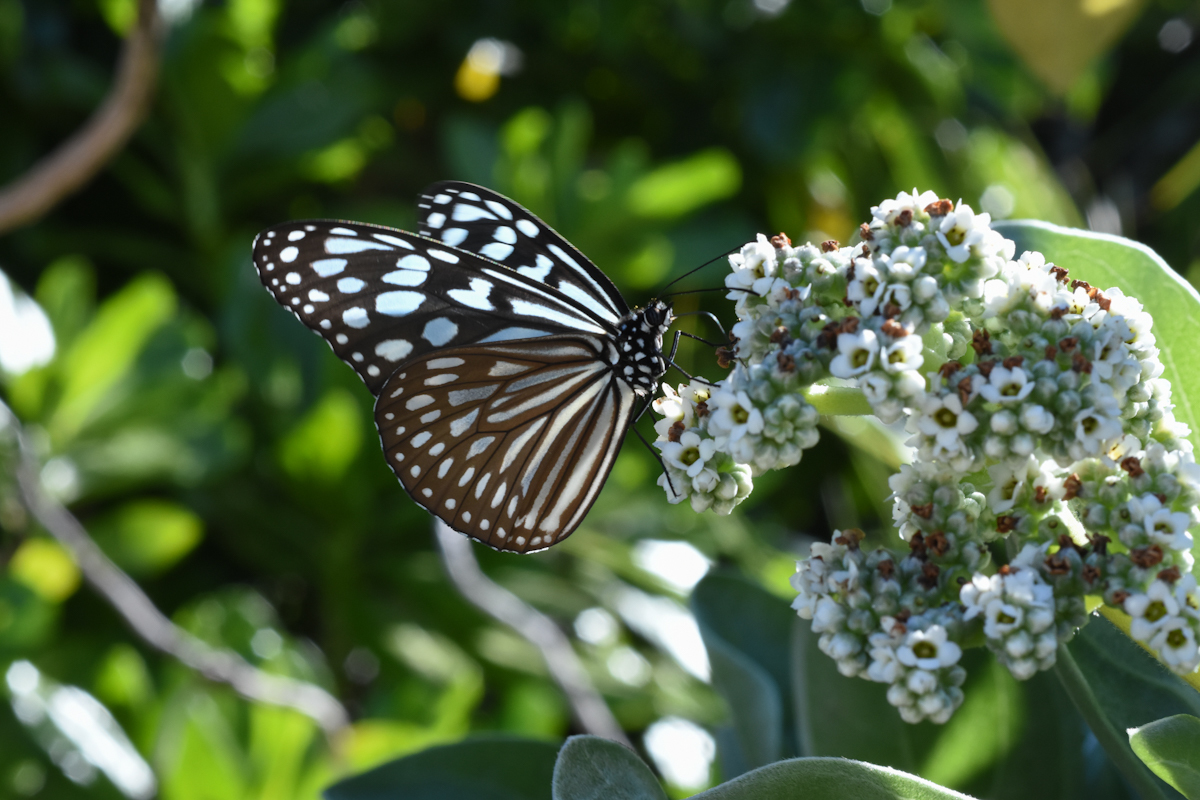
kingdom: Animalia
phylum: Arthropoda
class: Insecta
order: Lepidoptera
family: Nymphalidae
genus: Ideopsis
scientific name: Ideopsis similis
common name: Ceylon blue glassy tiger
